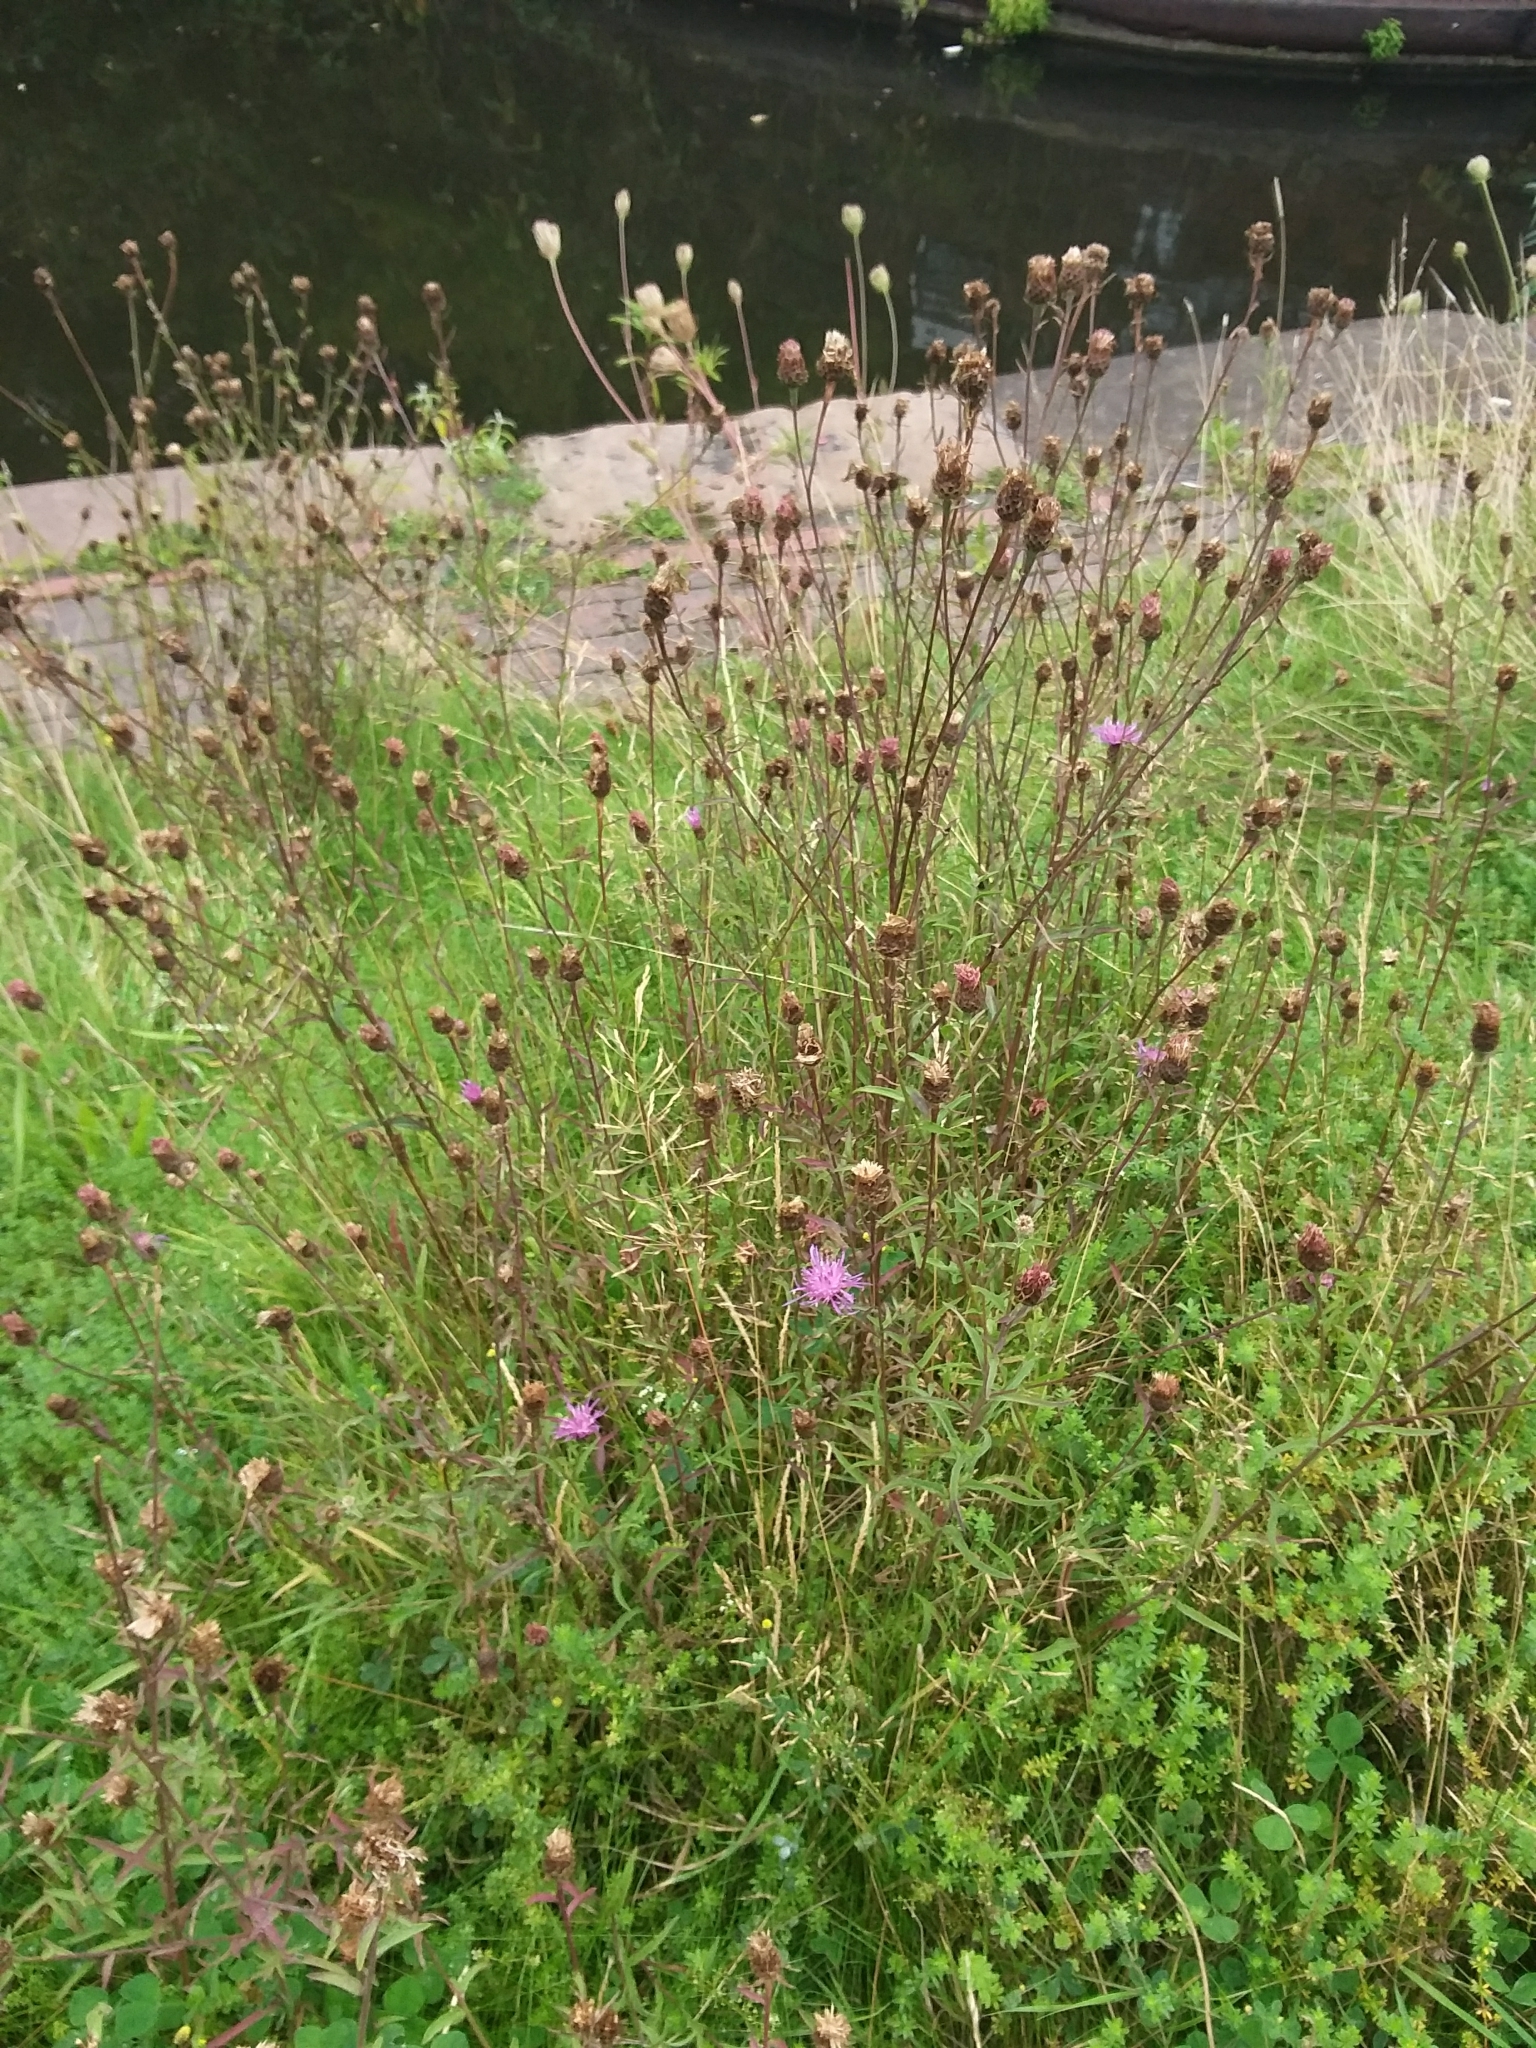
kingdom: Plantae
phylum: Tracheophyta
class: Magnoliopsida
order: Asterales
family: Asteraceae
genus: Centaurea
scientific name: Centaurea nigra
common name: Lesser knapweed
